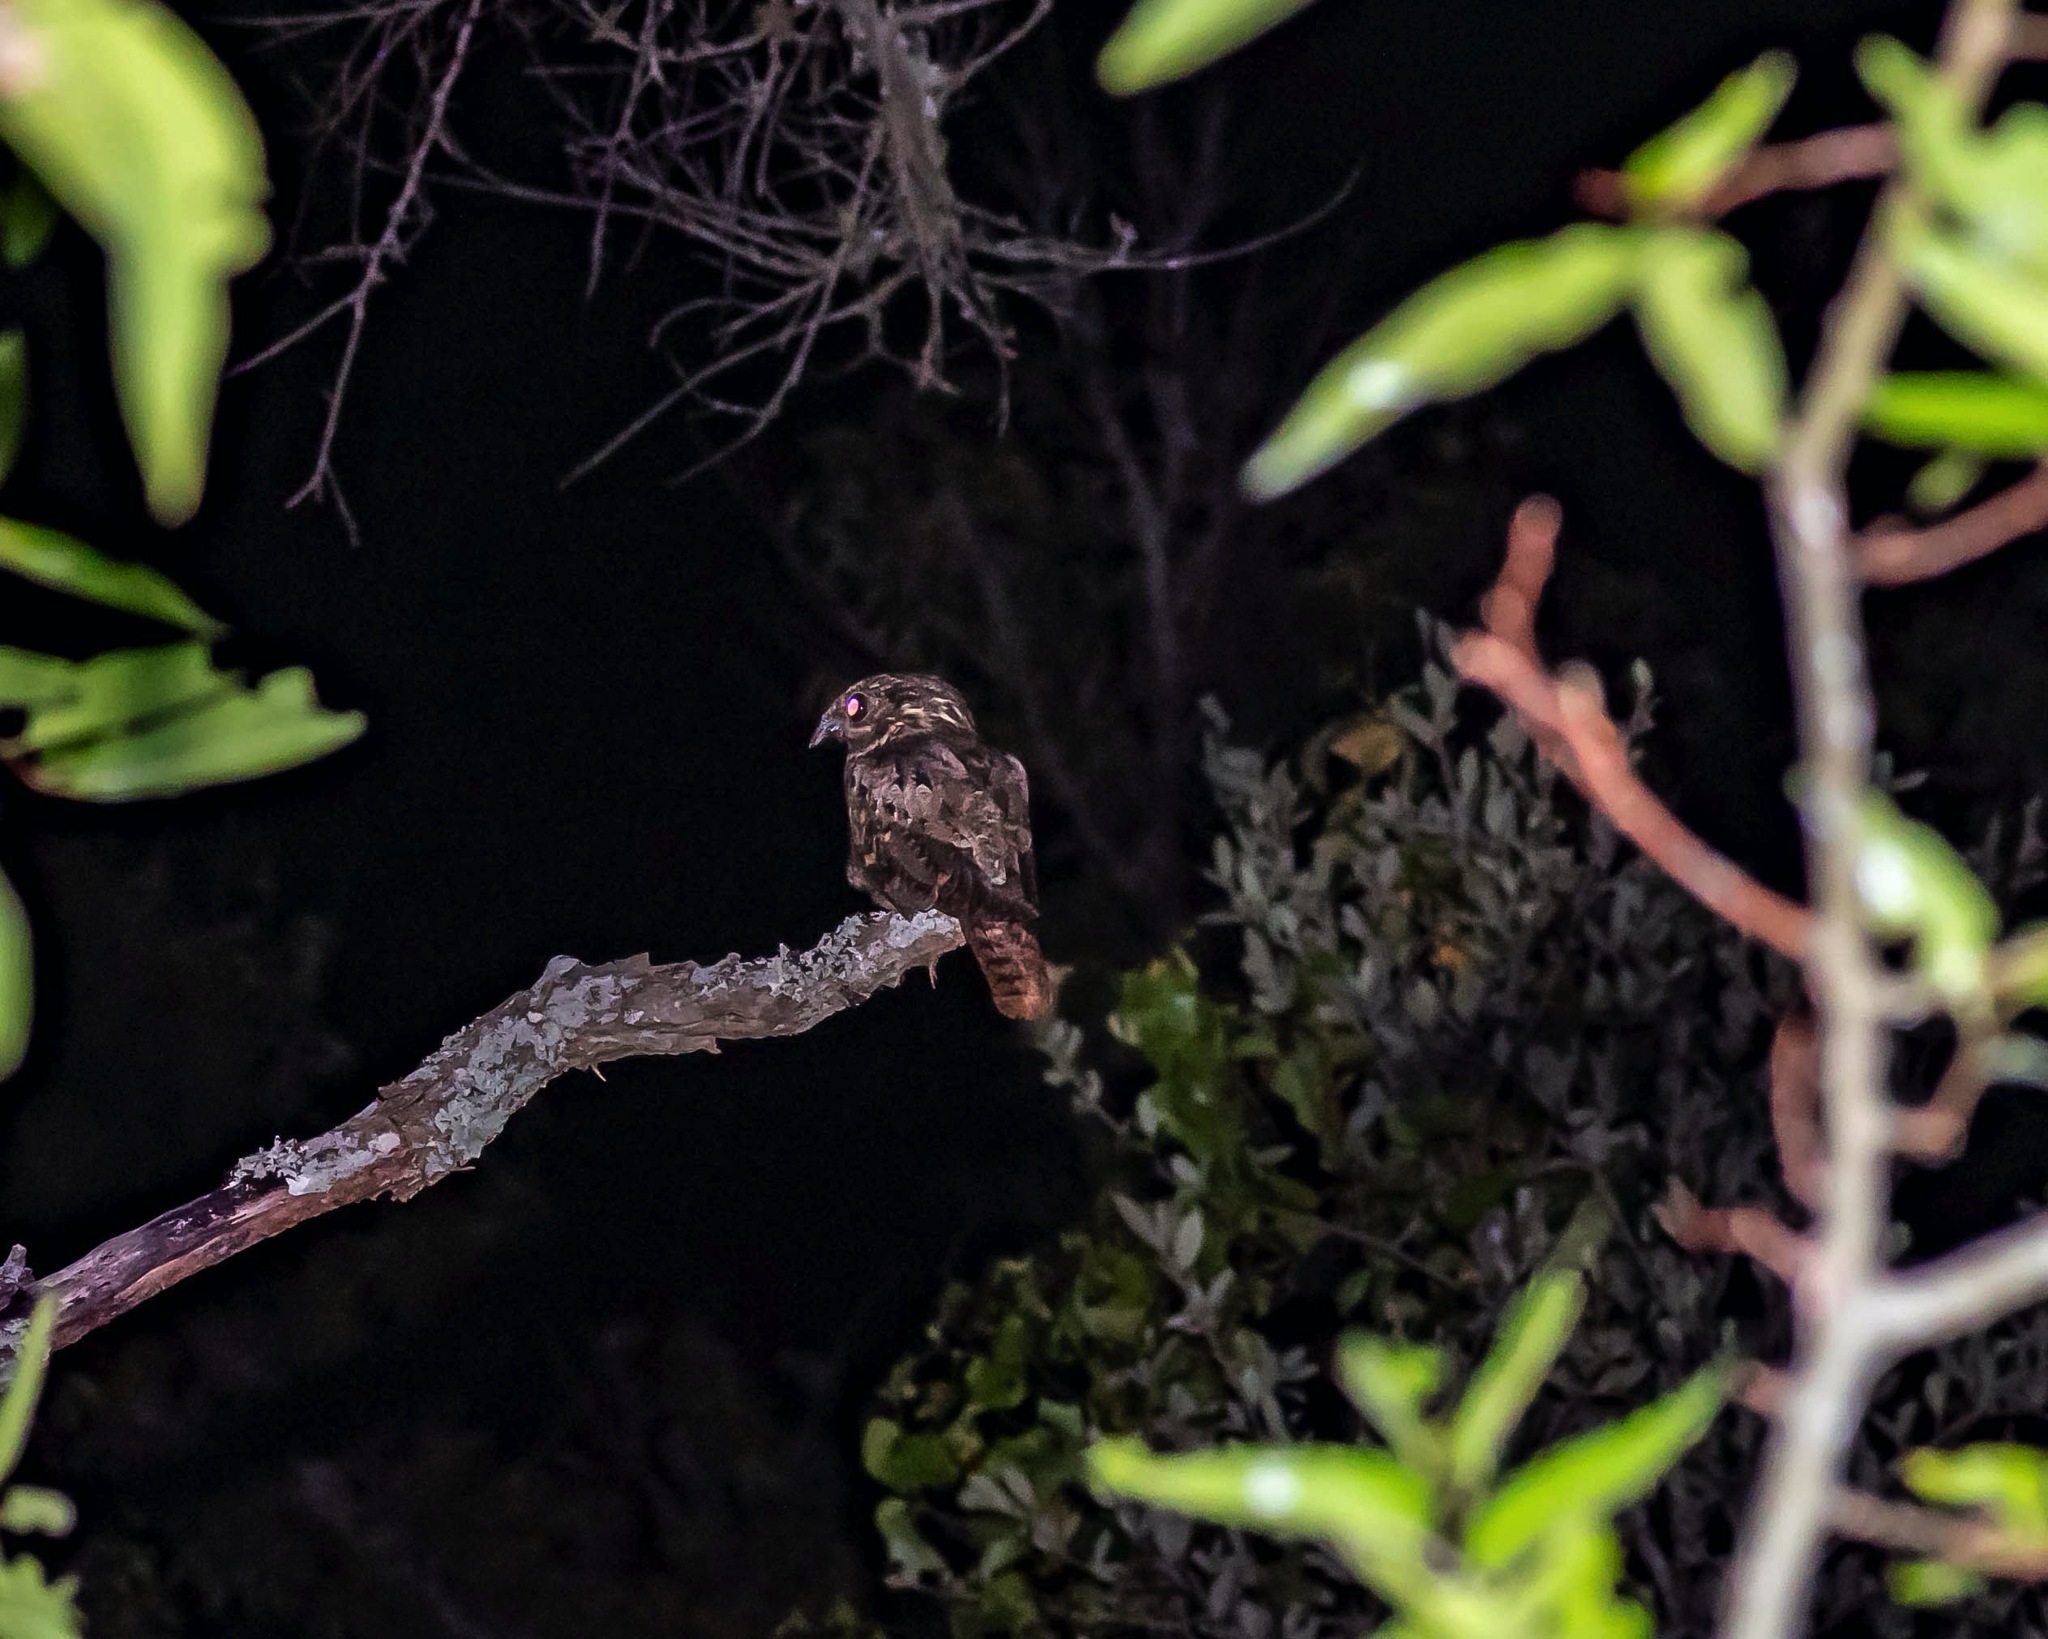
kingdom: Animalia
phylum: Chordata
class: Aves
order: Caprimulgiformes
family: Caprimulgidae
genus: Antrostomus
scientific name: Antrostomus carolinensis
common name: Chuck-will's-widow
